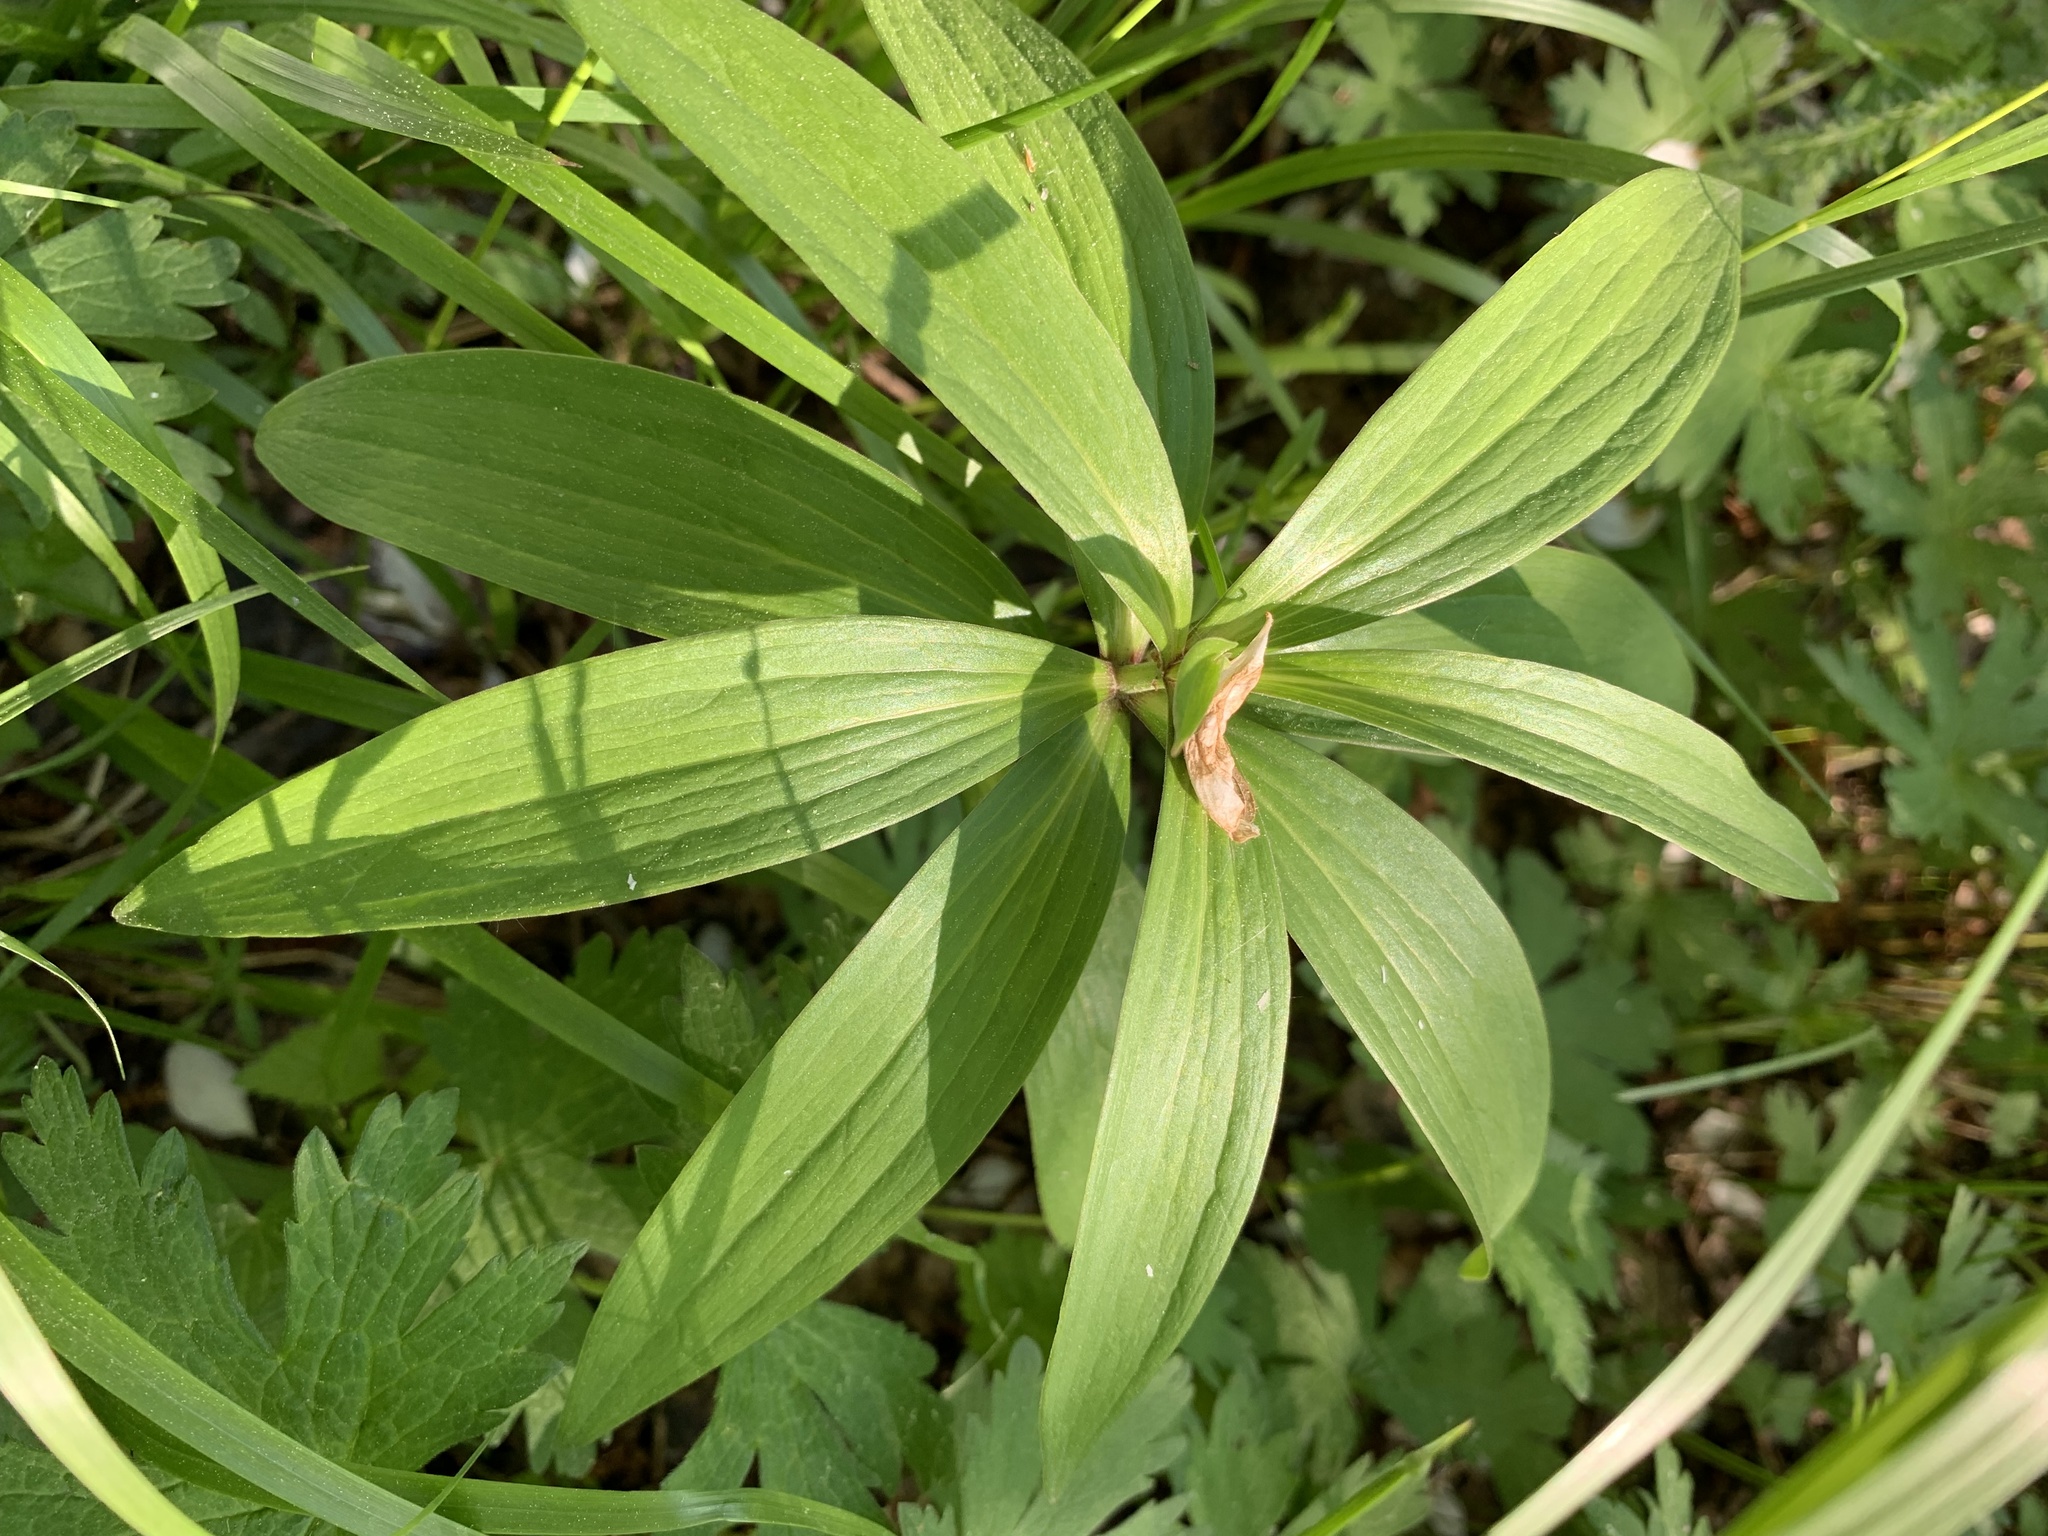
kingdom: Plantae
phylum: Tracheophyta
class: Liliopsida
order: Liliales
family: Liliaceae
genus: Lilium
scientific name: Lilium martagon
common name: Martagon lily
